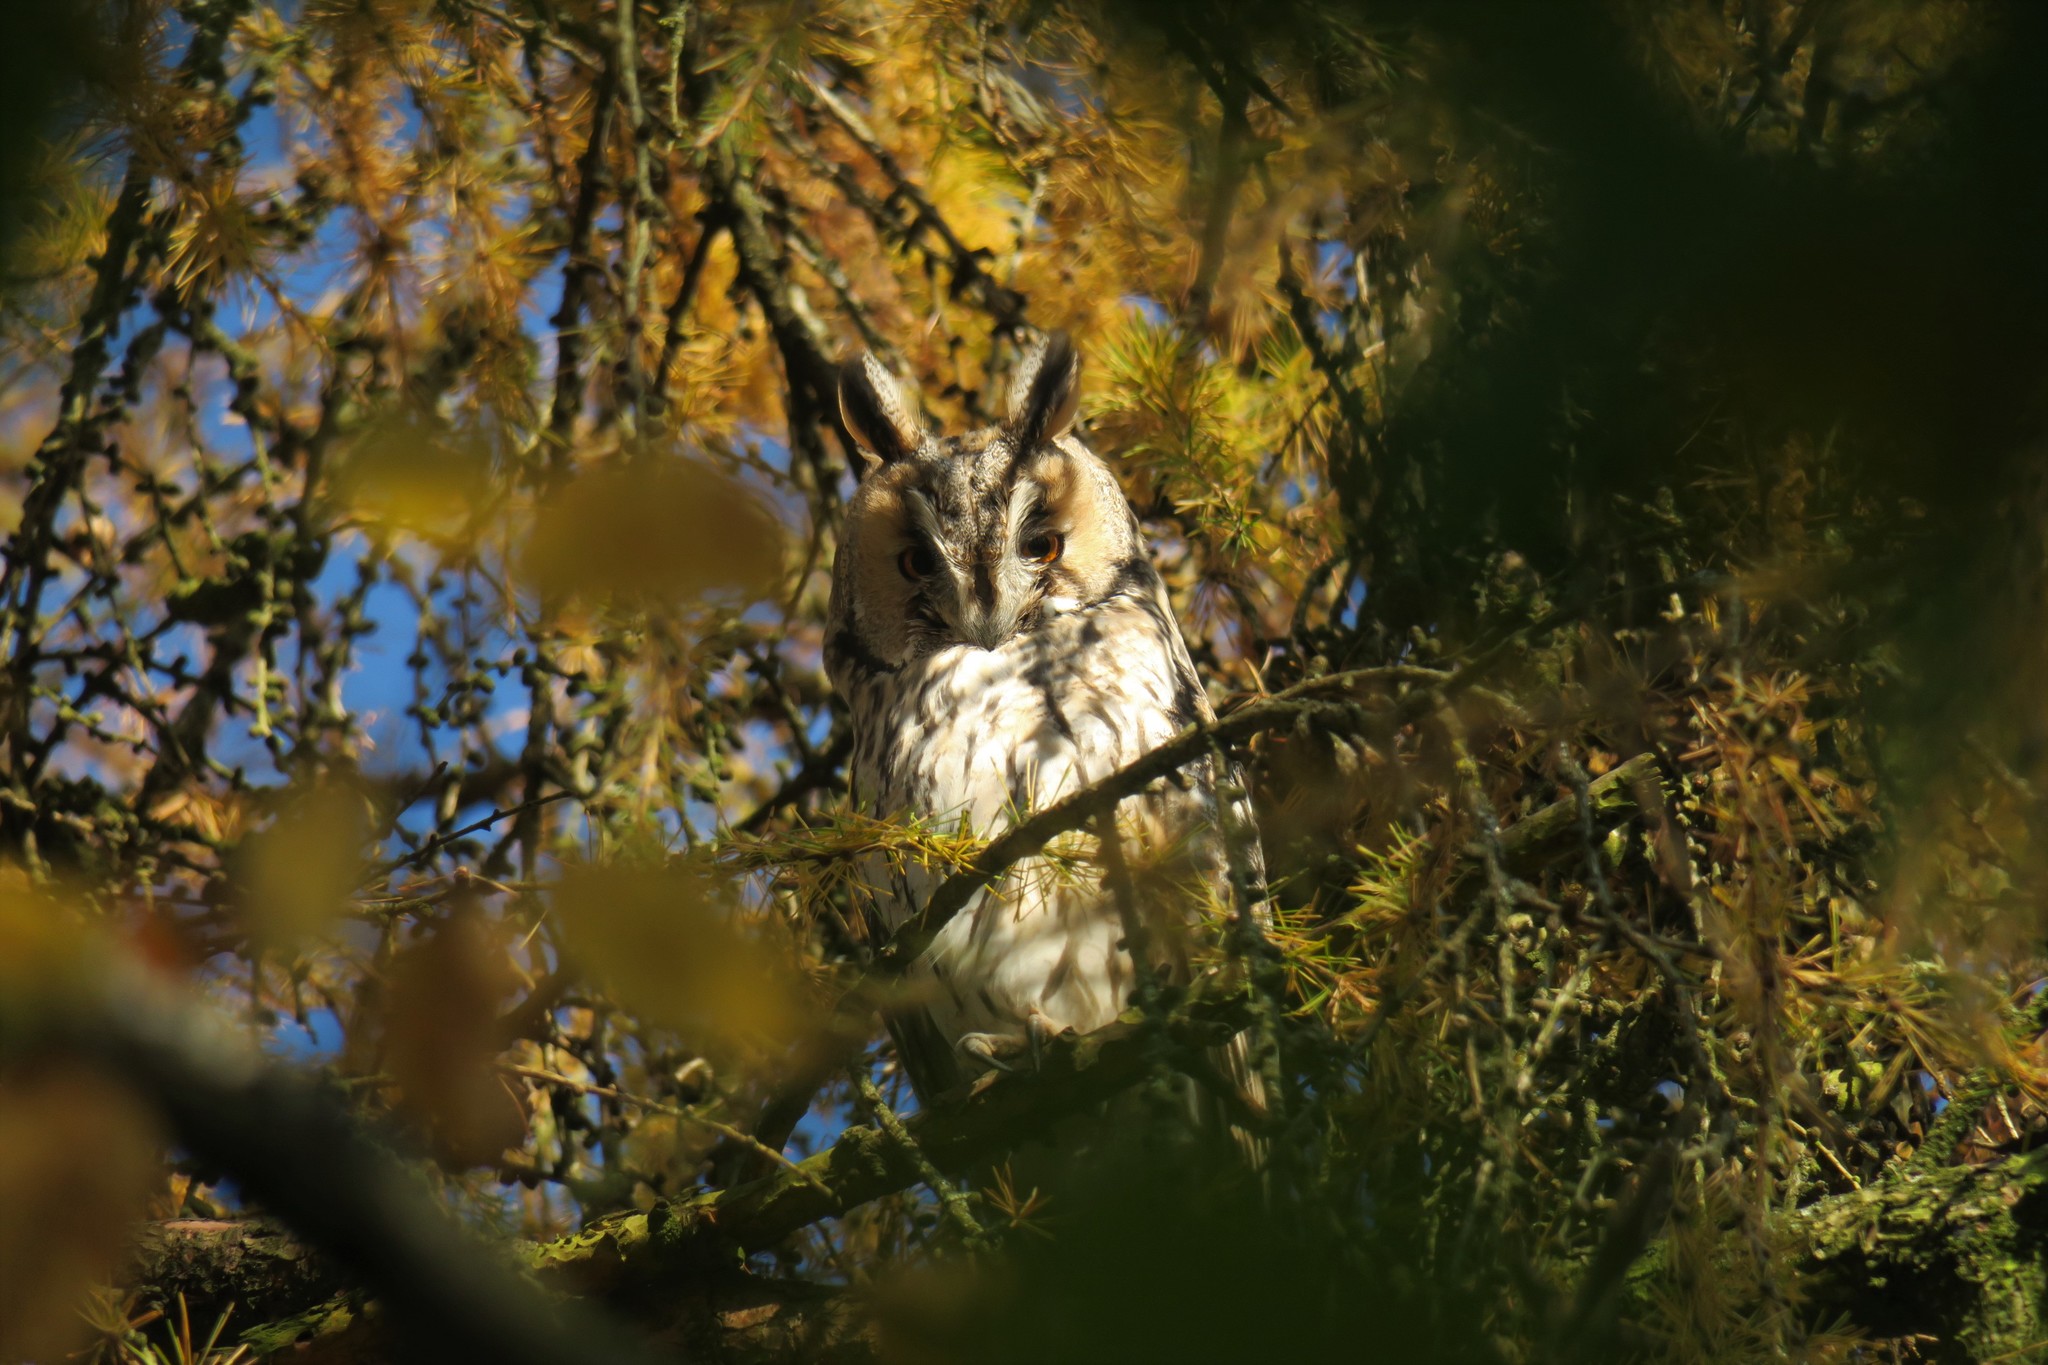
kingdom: Animalia
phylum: Chordata
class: Aves
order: Strigiformes
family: Strigidae
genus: Asio
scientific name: Asio otus
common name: Long-eared owl
